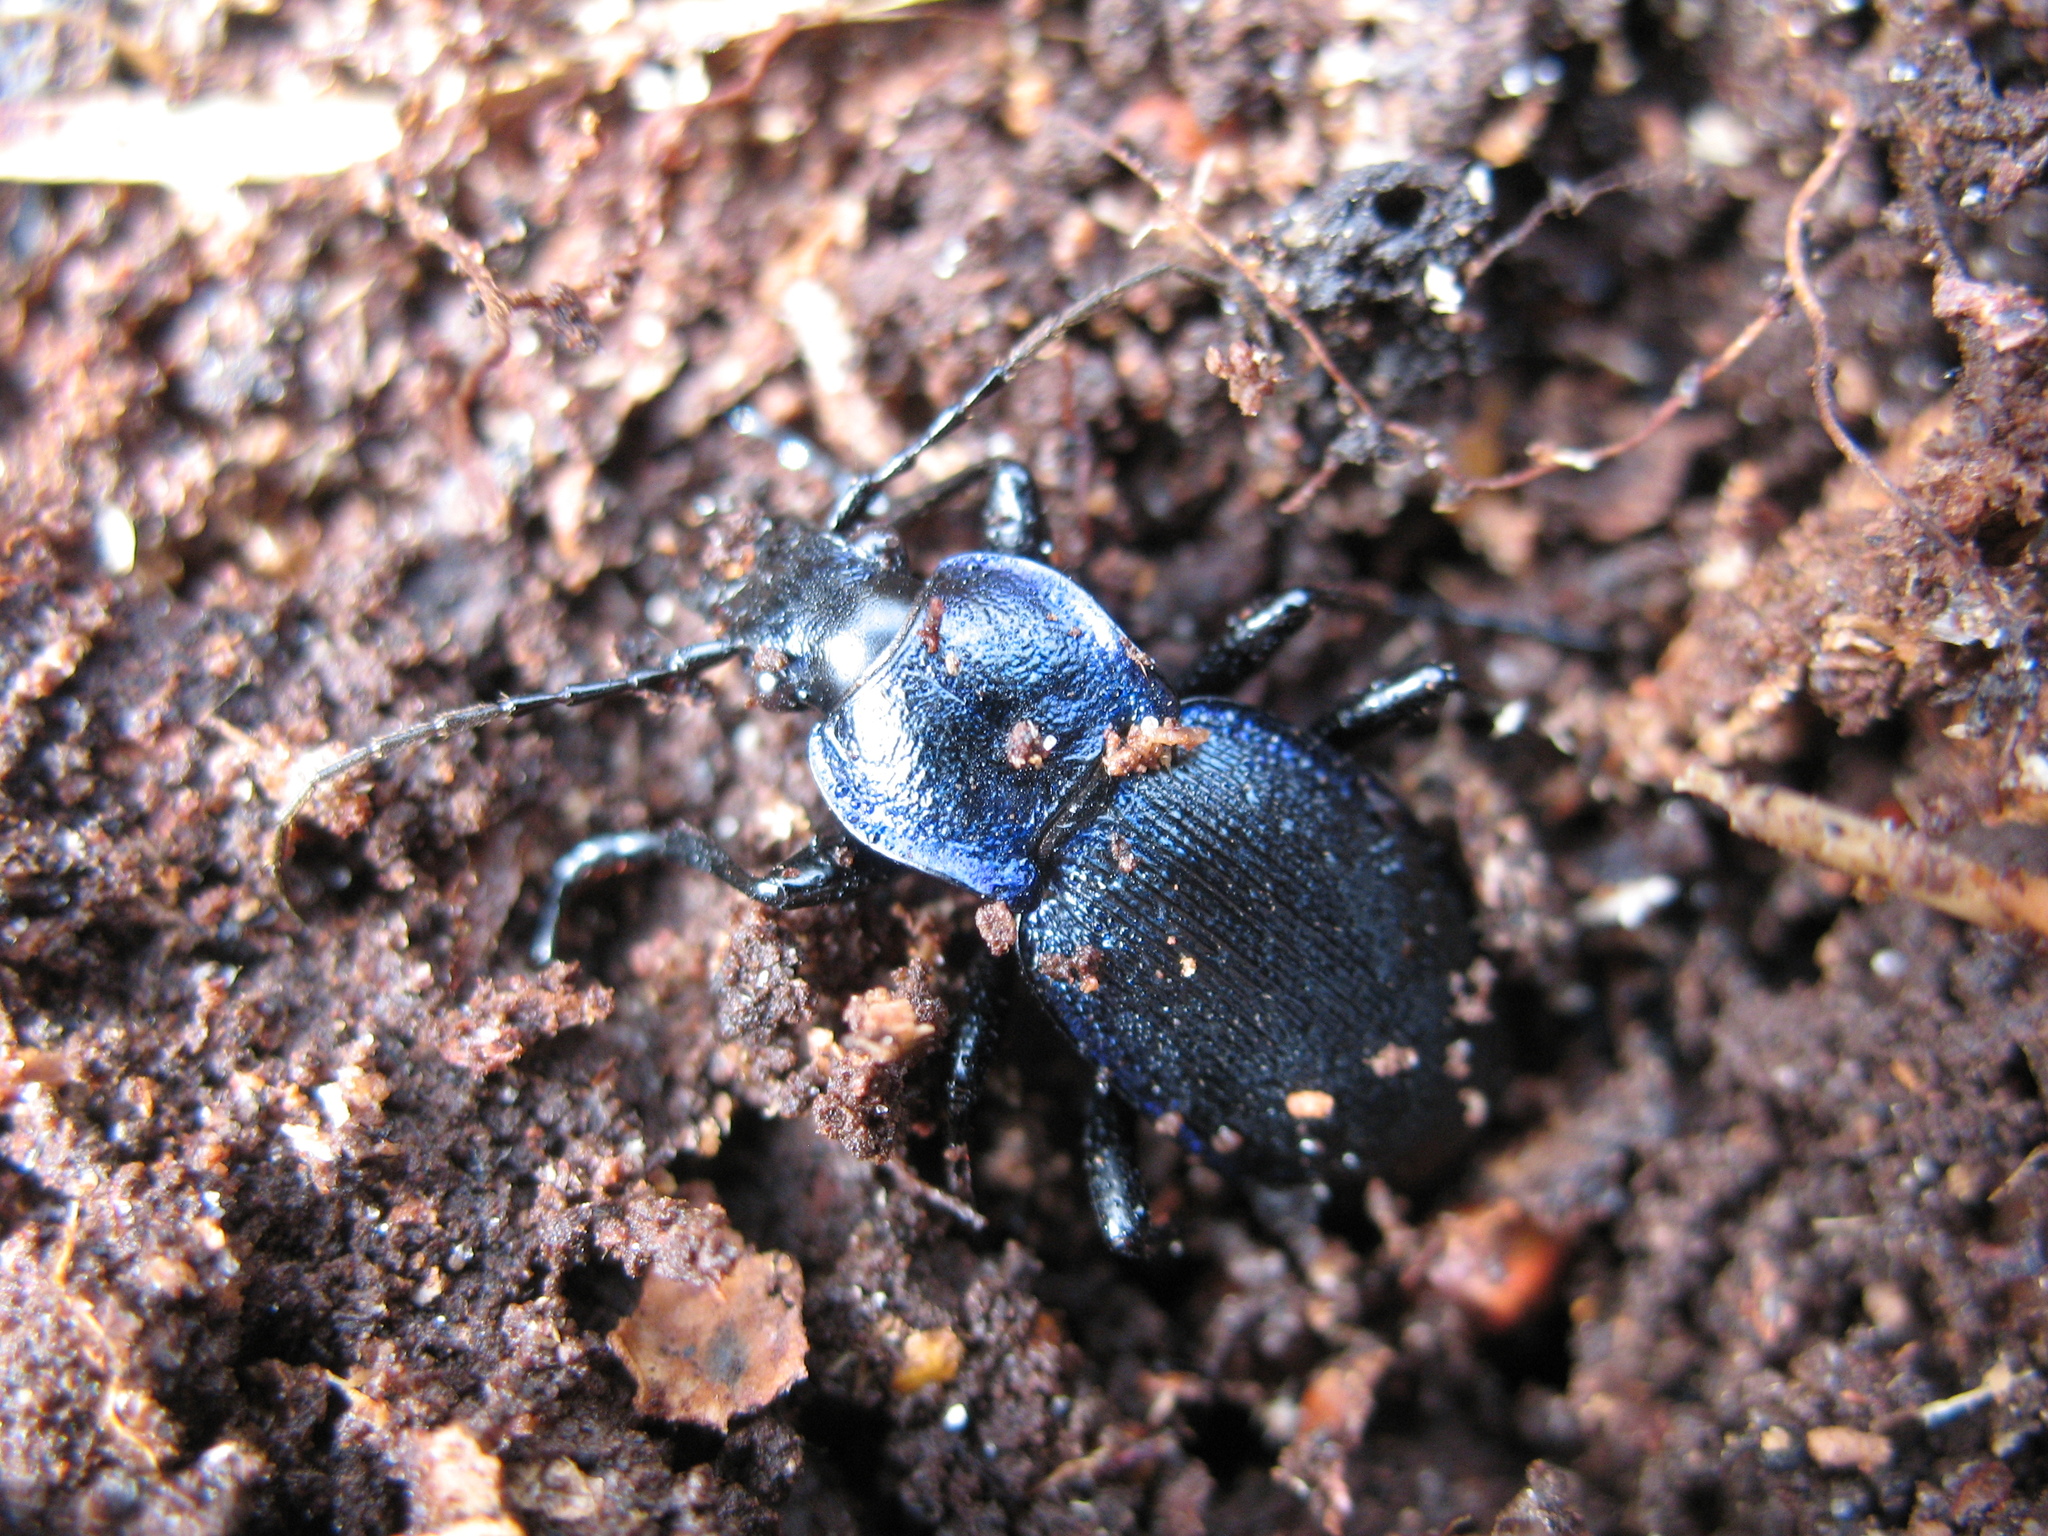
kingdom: Animalia
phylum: Arthropoda
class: Insecta
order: Coleoptera
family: Carabidae
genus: Carabus
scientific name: Carabus problematicus
